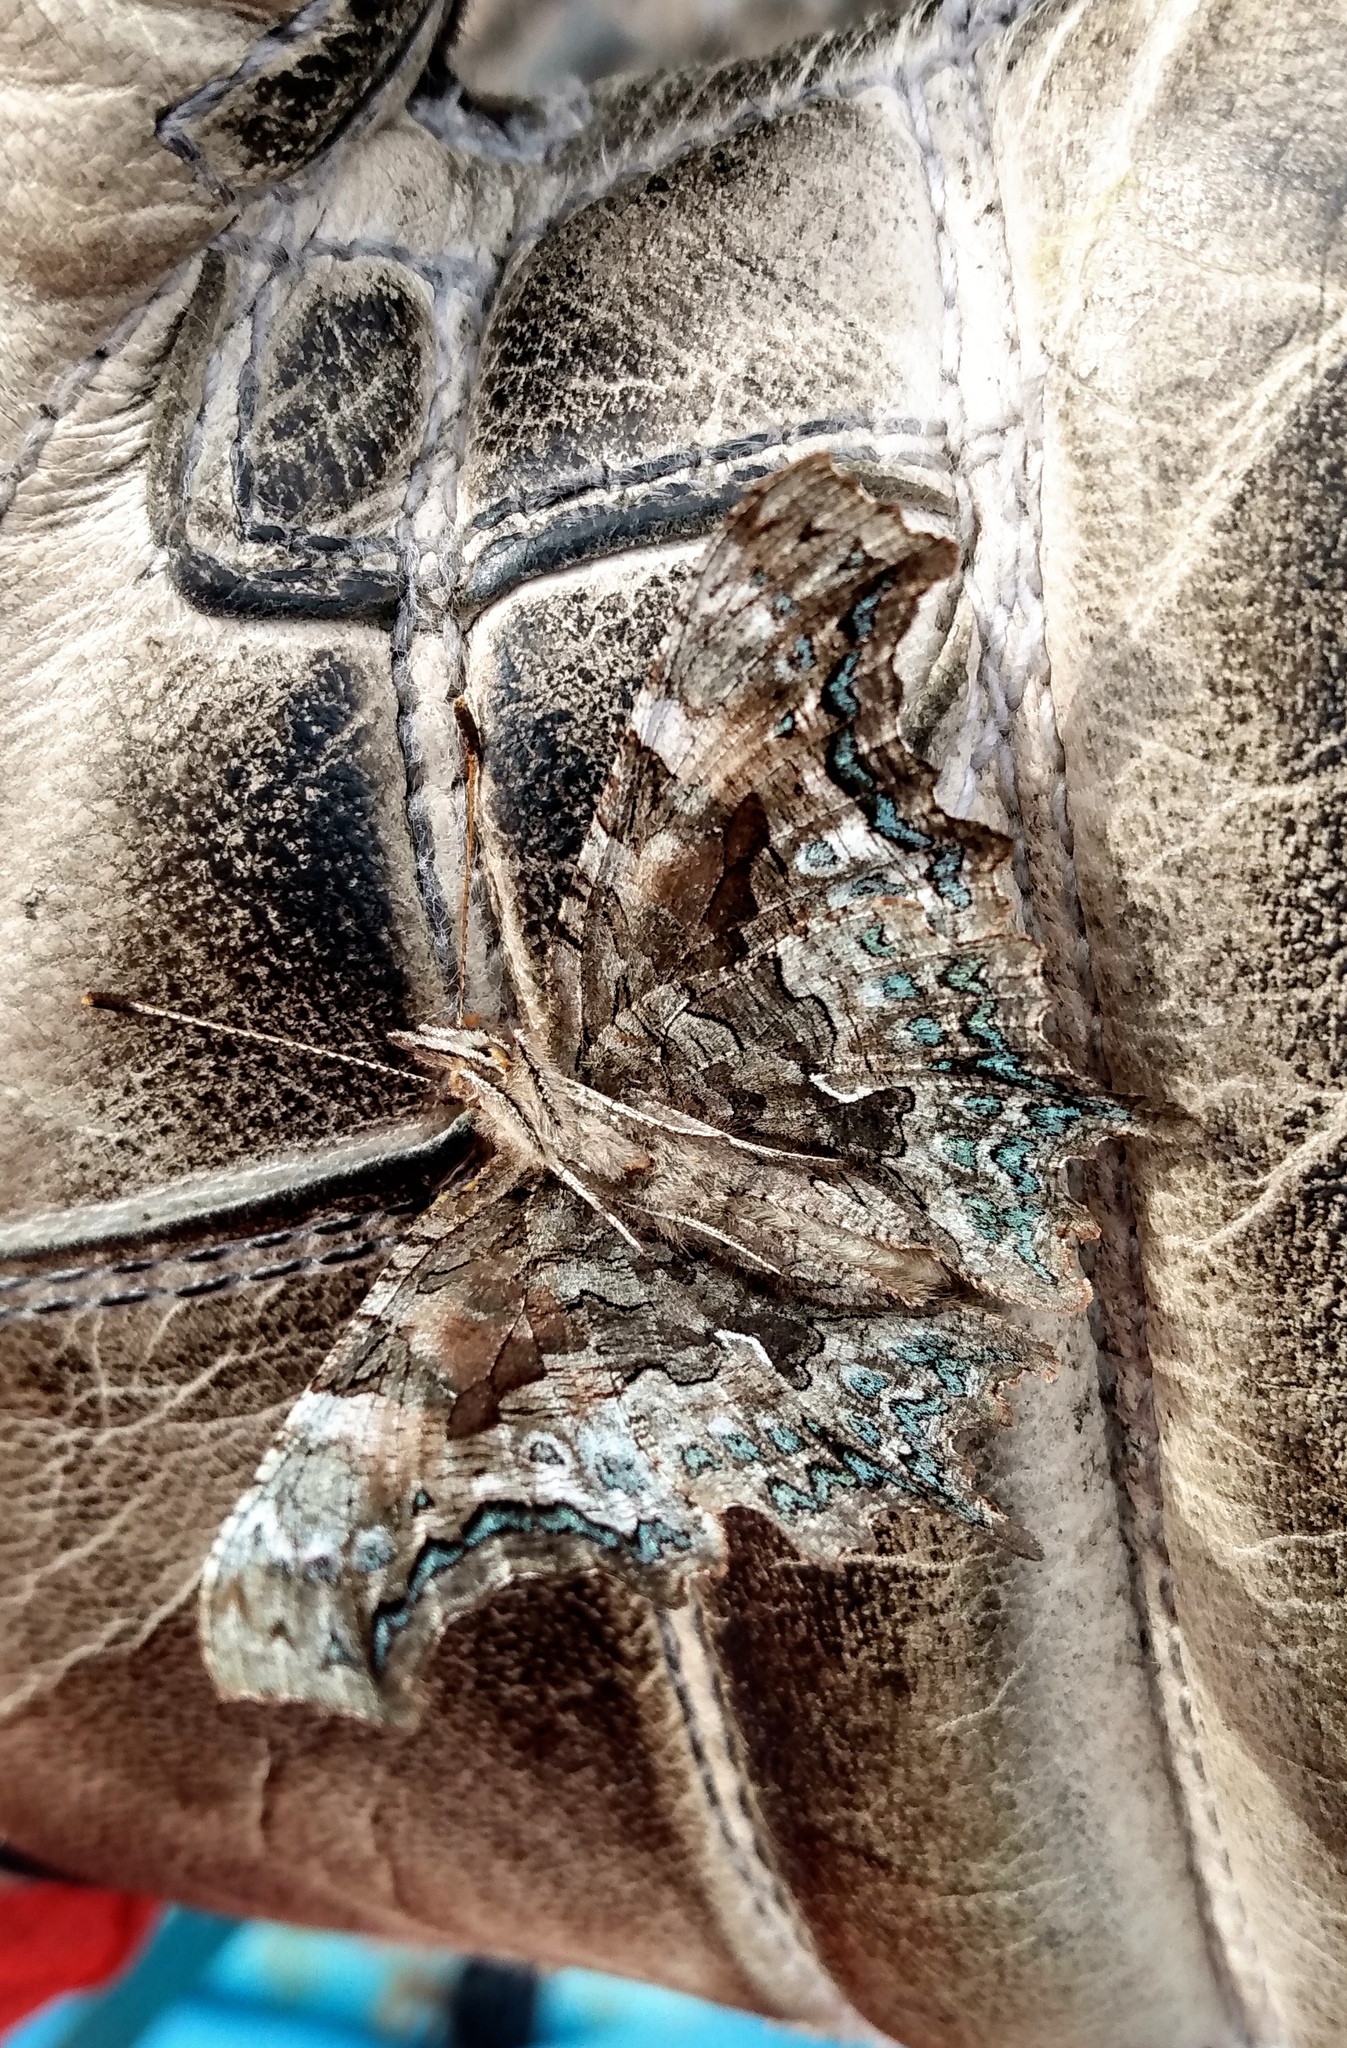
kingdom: Animalia
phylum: Arthropoda
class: Insecta
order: Lepidoptera
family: Nymphalidae
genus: Polygonia
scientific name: Polygonia faunus
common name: Green comma
